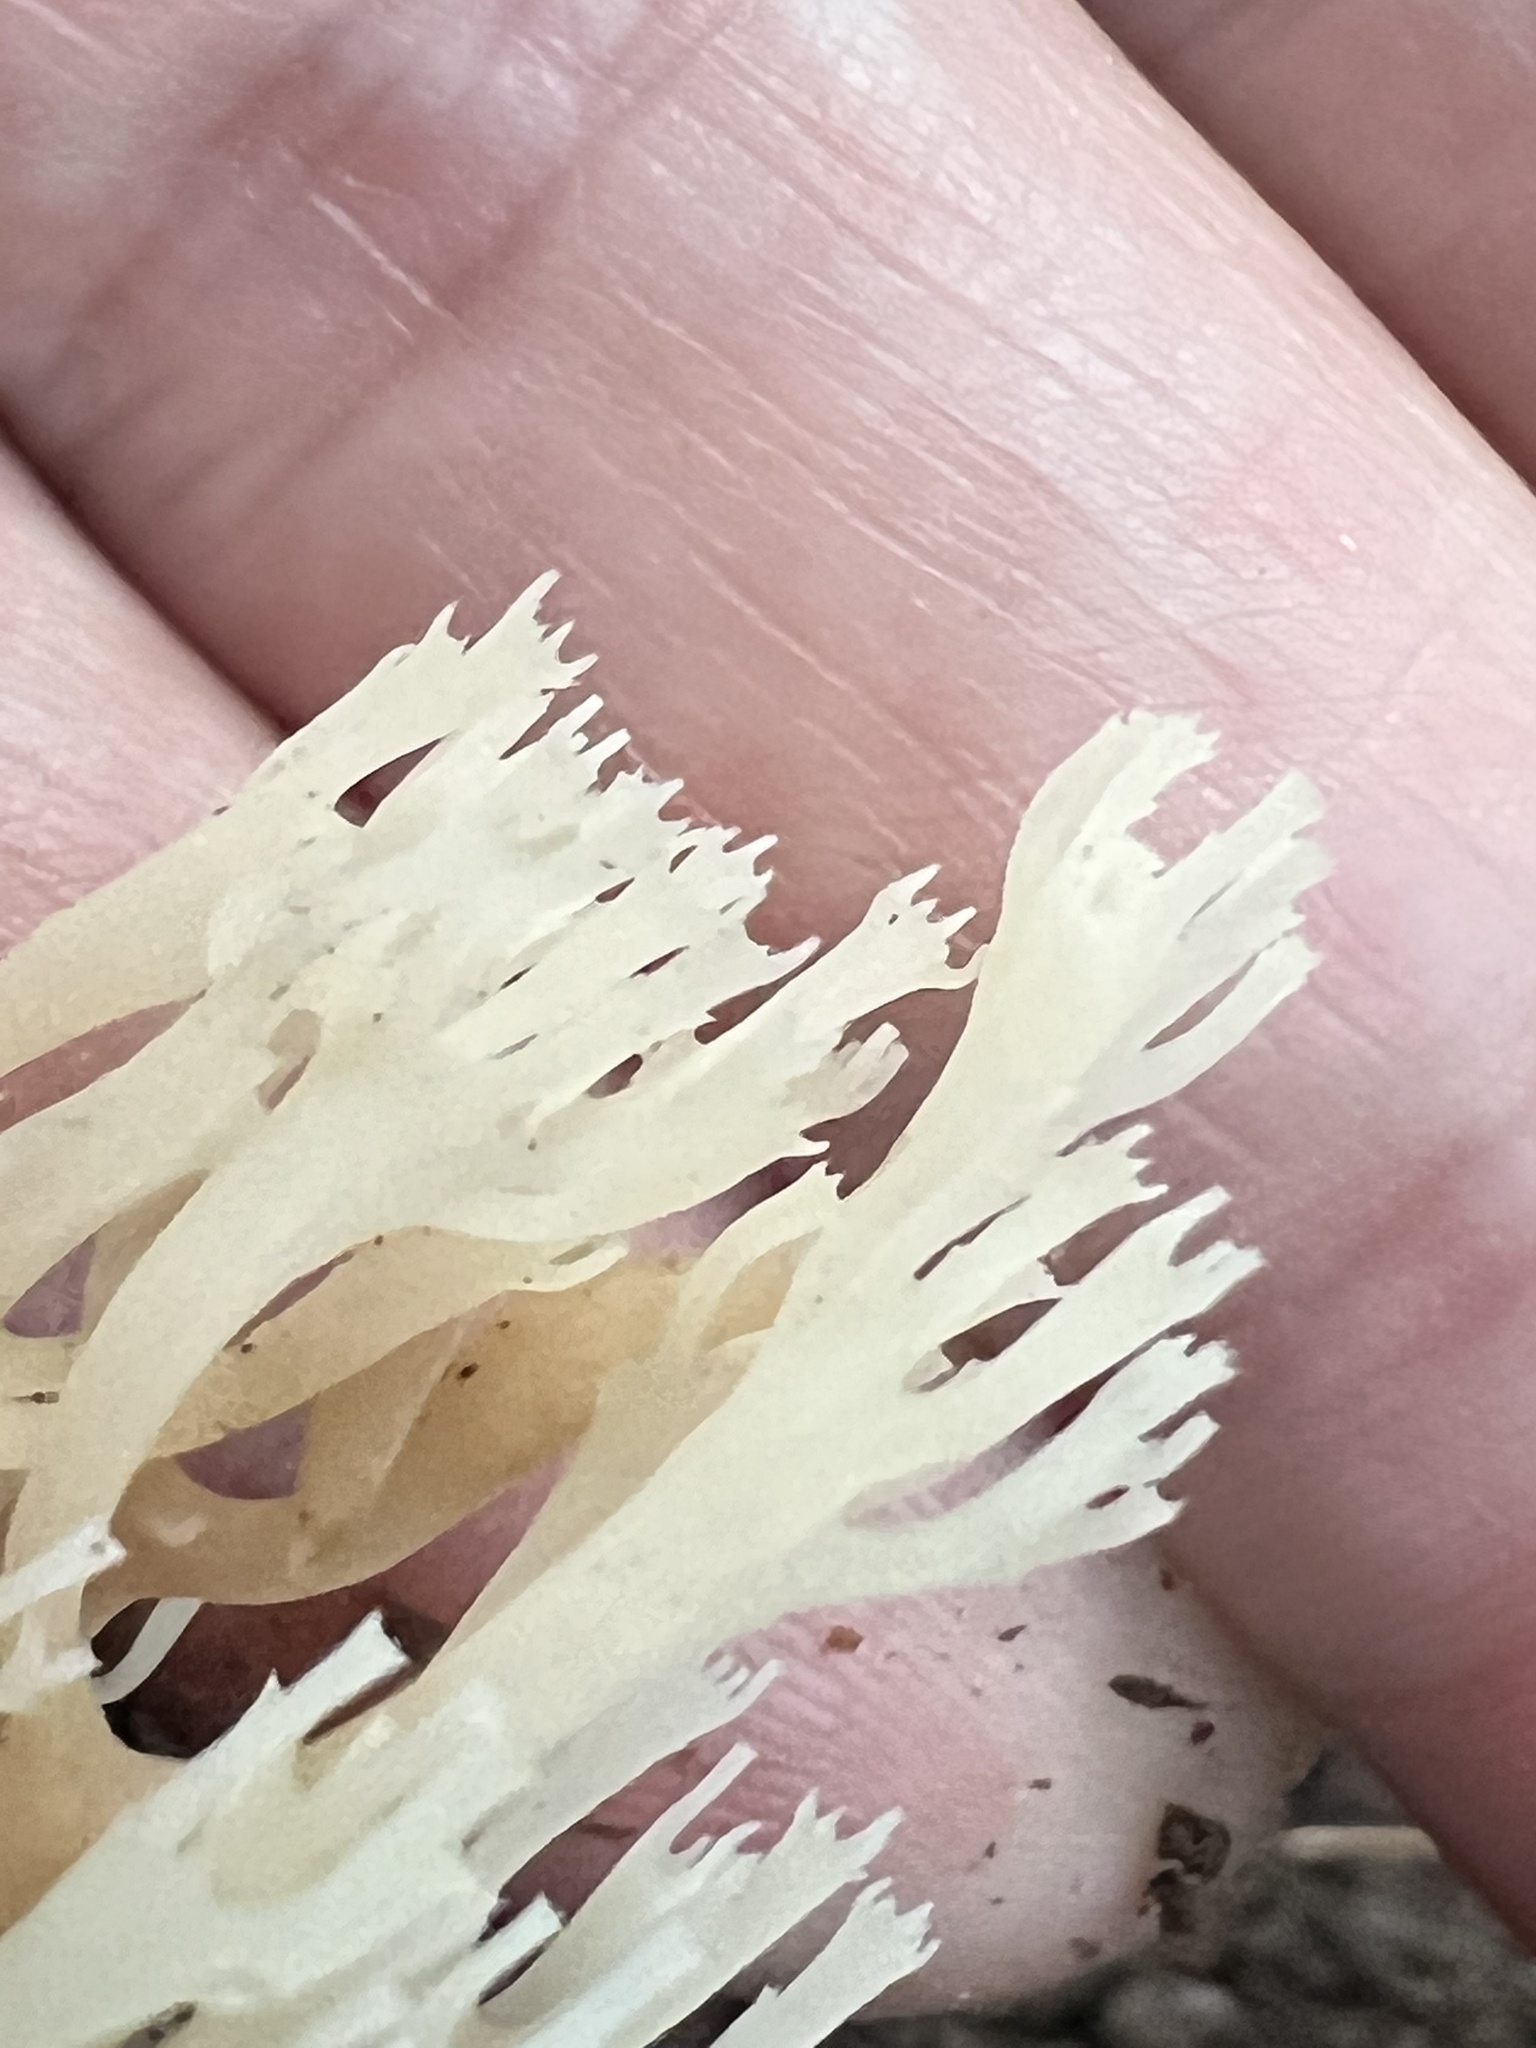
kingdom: Fungi
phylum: Basidiomycota
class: Agaricomycetes
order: Russulales
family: Auriscalpiaceae
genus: Artomyces
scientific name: Artomyces pyxidatus
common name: Crown-tipped coral fungus
